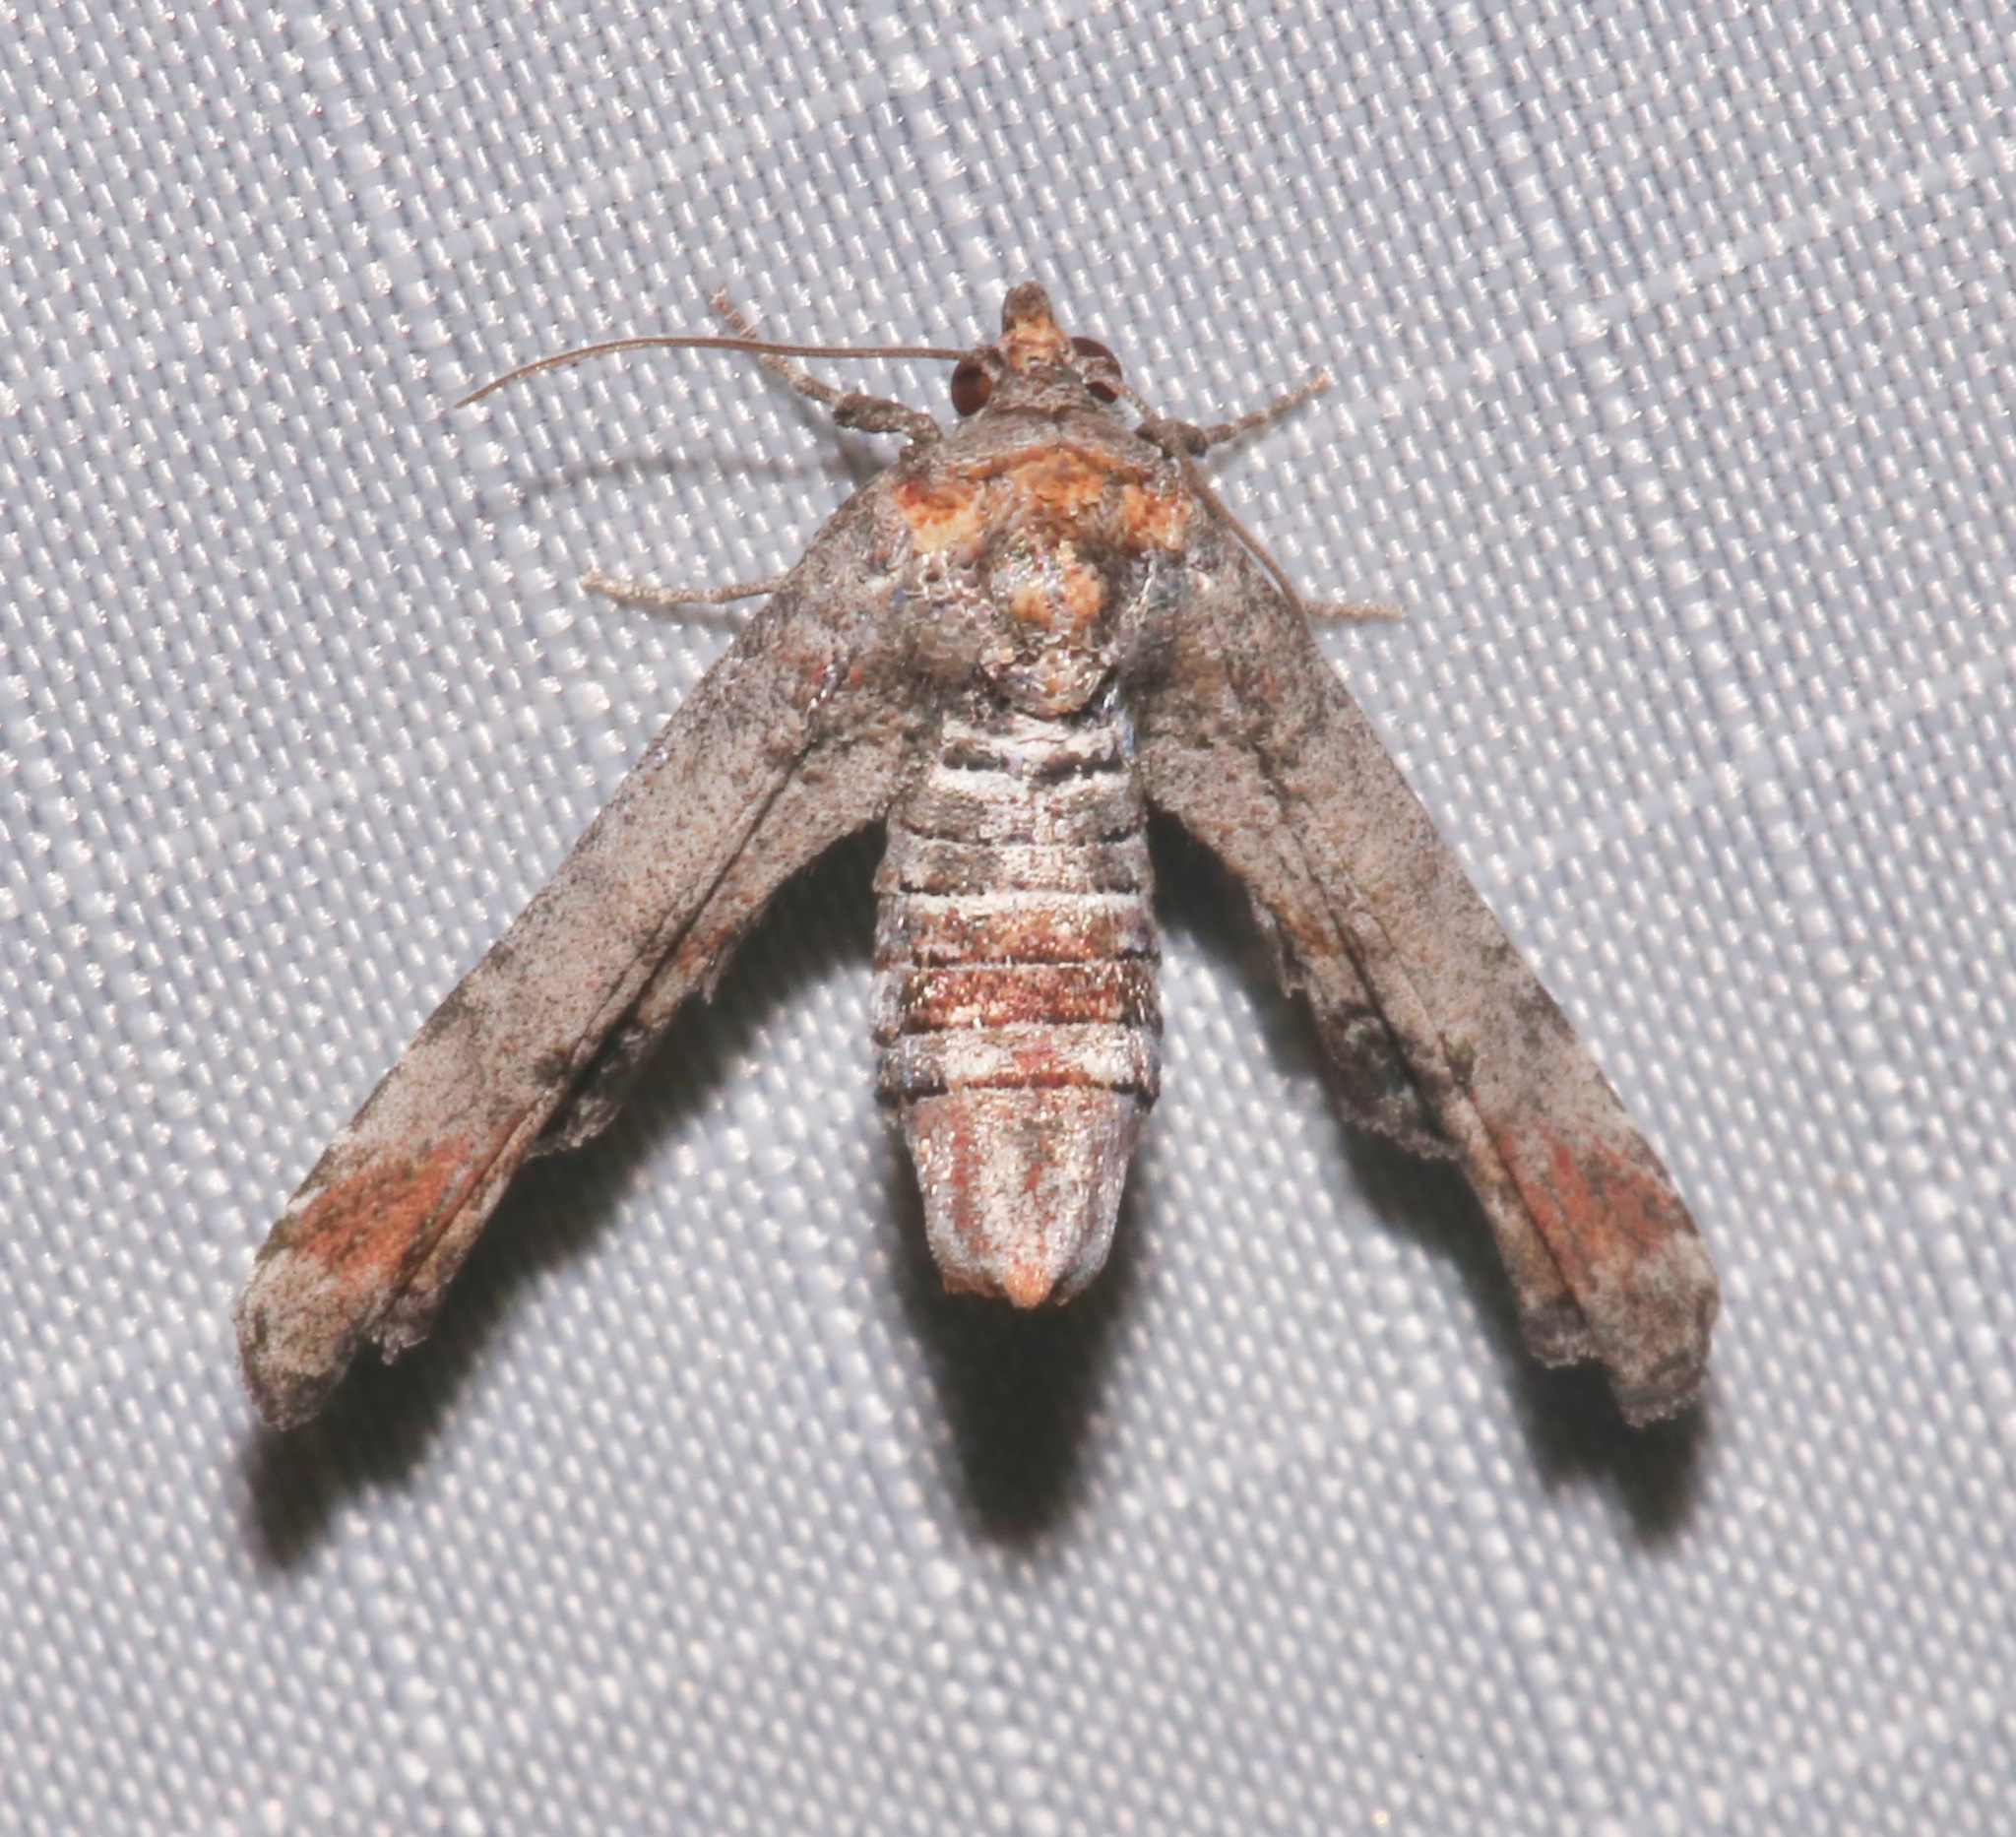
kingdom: Animalia
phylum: Arthropoda
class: Insecta
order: Lepidoptera
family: Euteliidae
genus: Marathyssa
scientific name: Marathyssa inficita
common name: Dark marathyssa moth
